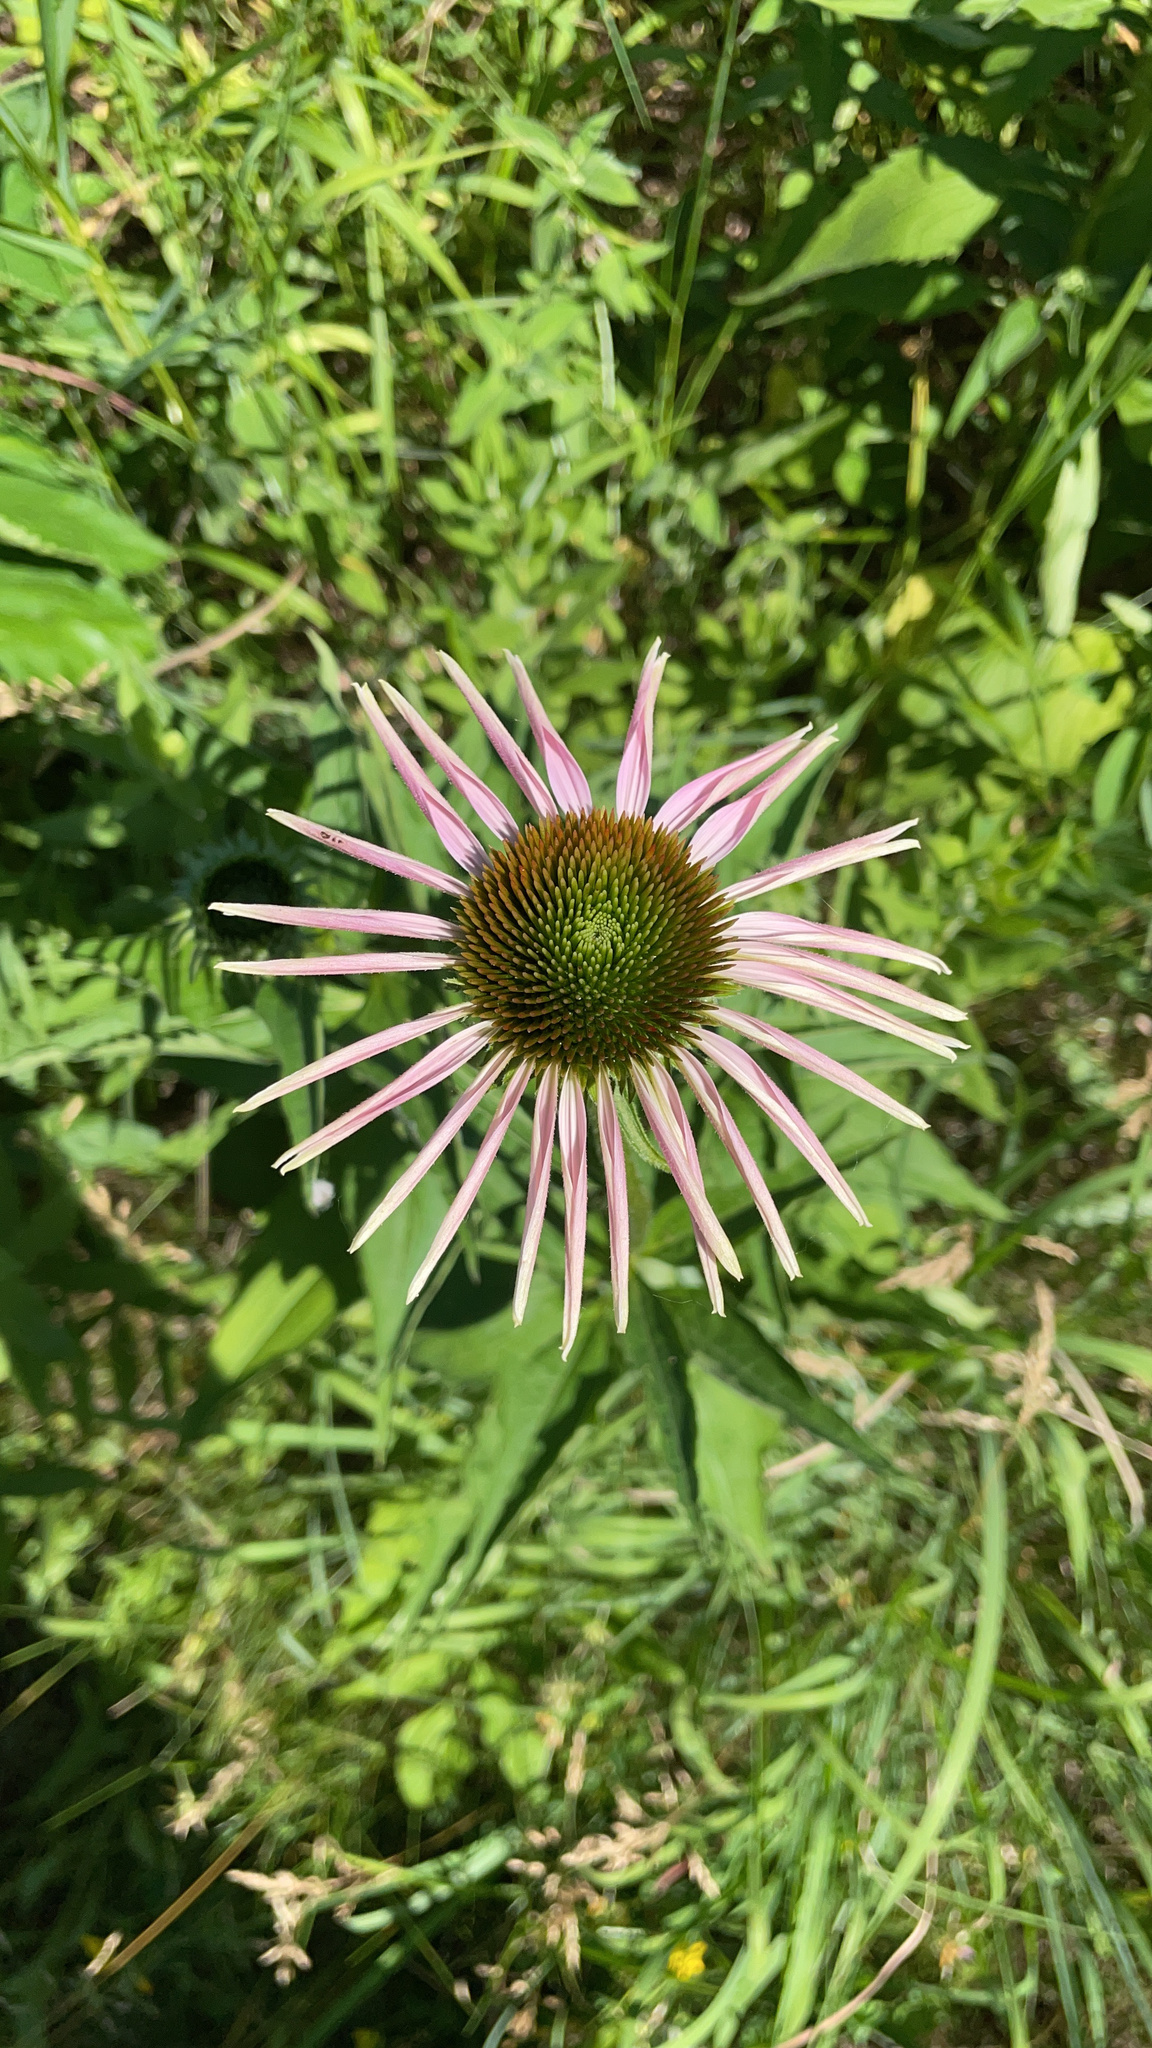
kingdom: Plantae
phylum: Tracheophyta
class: Magnoliopsida
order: Asterales
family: Asteraceae
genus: Echinacea
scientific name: Echinacea pallida
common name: Pale echinacea
